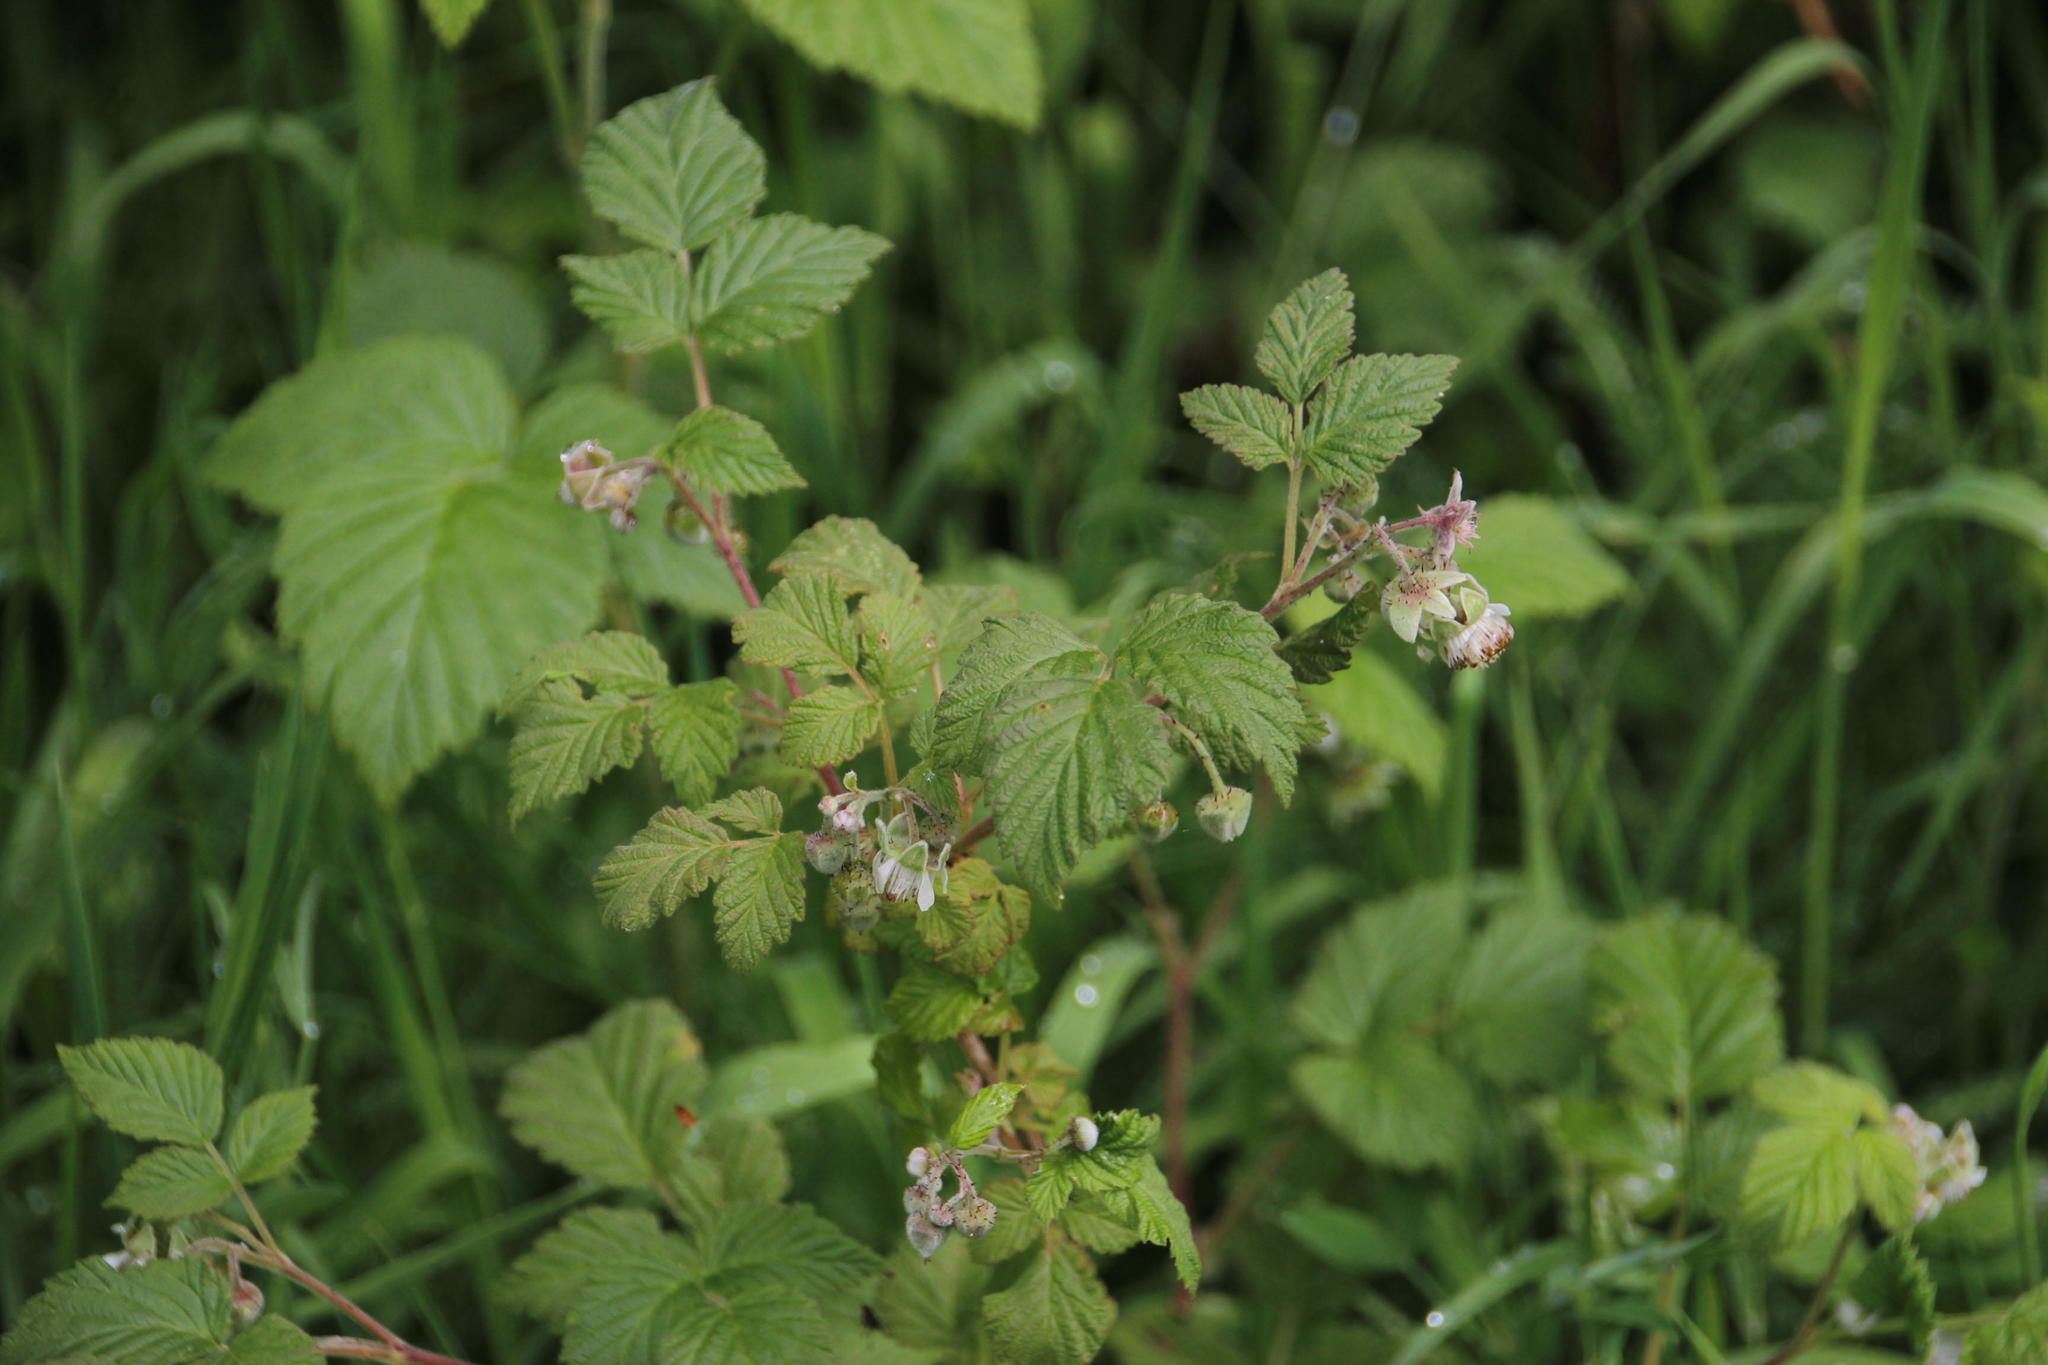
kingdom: Plantae
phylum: Tracheophyta
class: Magnoliopsida
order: Rosales
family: Rosaceae
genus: Rubus
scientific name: Rubus idaeus
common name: Raspberry
